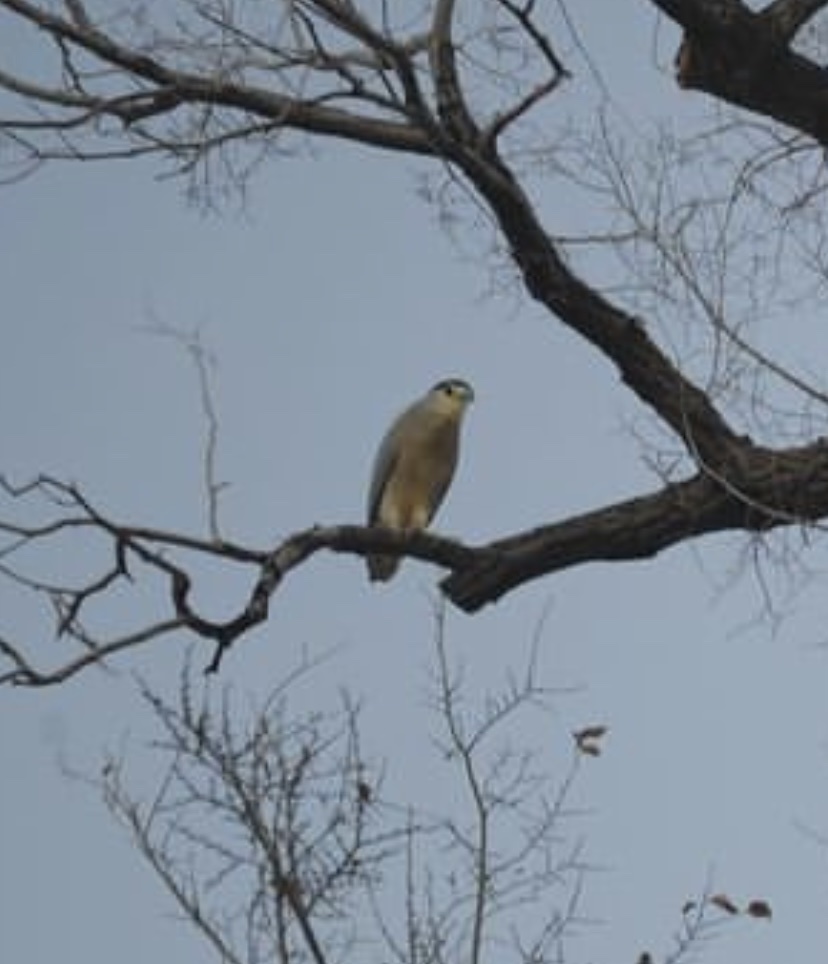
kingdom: Animalia
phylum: Chordata
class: Aves
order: Pelecaniformes
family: Ardeidae
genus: Nycticorax
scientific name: Nycticorax nycticorax
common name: Black-crowned night heron
